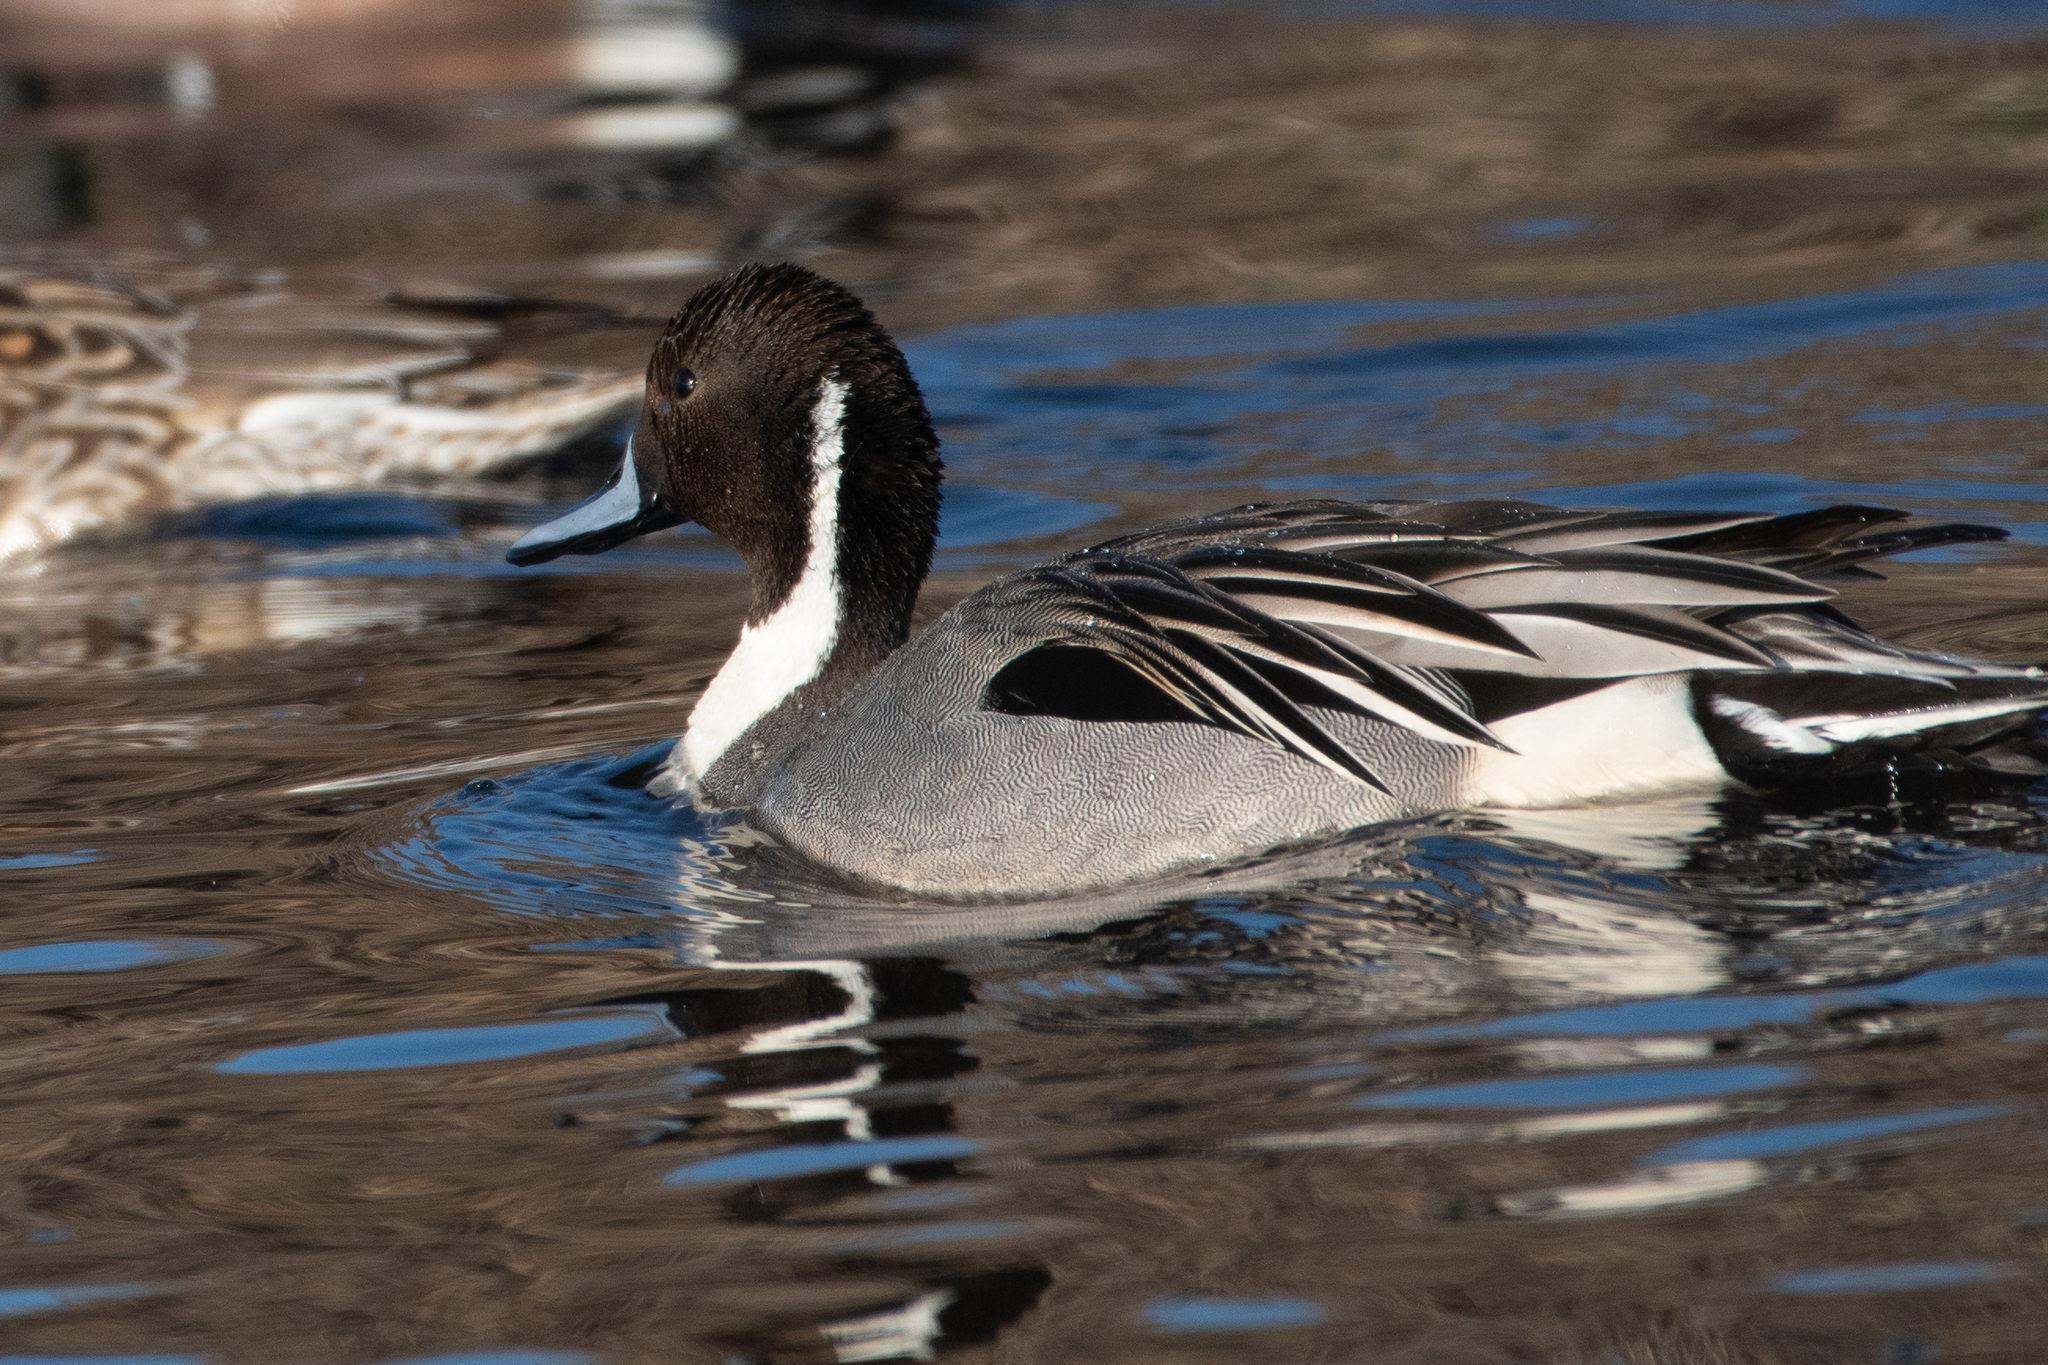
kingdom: Animalia
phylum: Chordata
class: Aves
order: Anseriformes
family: Anatidae
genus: Anas
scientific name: Anas acuta
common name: Northern pintail
